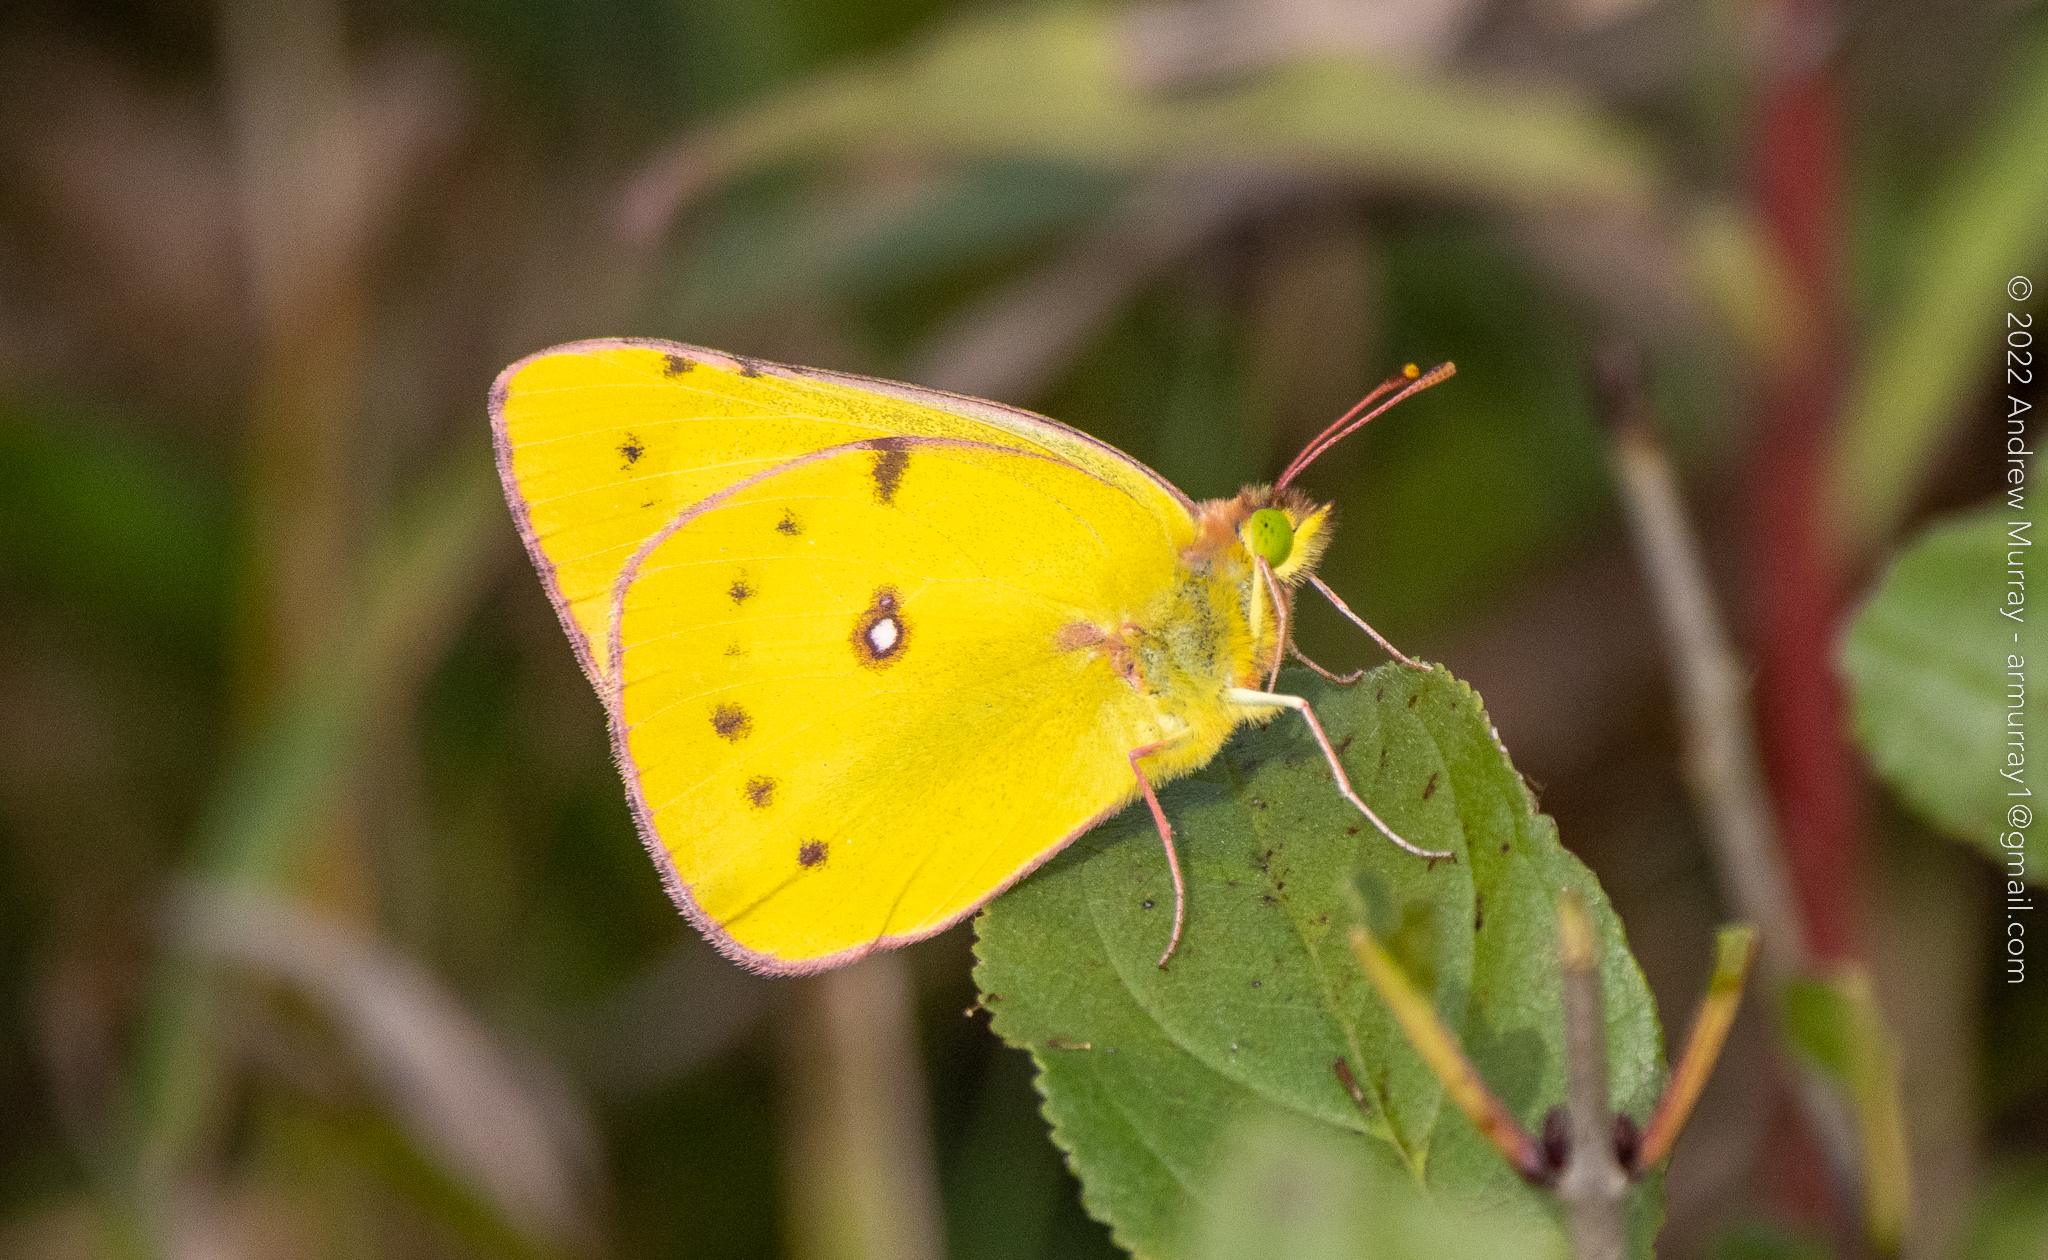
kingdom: Animalia
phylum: Arthropoda
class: Insecta
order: Lepidoptera
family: Pieridae
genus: Colias
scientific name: Colias eurytheme
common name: Alfalfa butterfly
